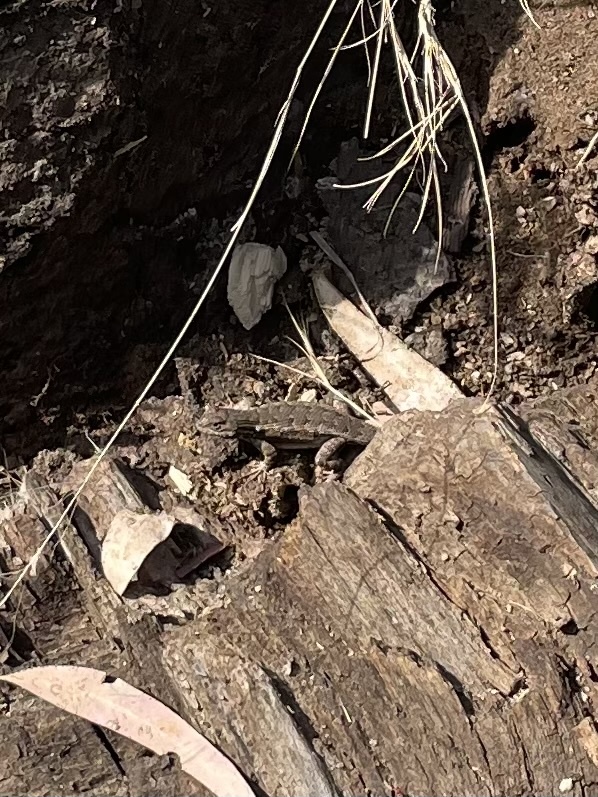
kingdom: Animalia
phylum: Chordata
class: Squamata
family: Phrynosomatidae
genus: Sceloporus
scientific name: Sceloporus occidentalis
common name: Western fence lizard
